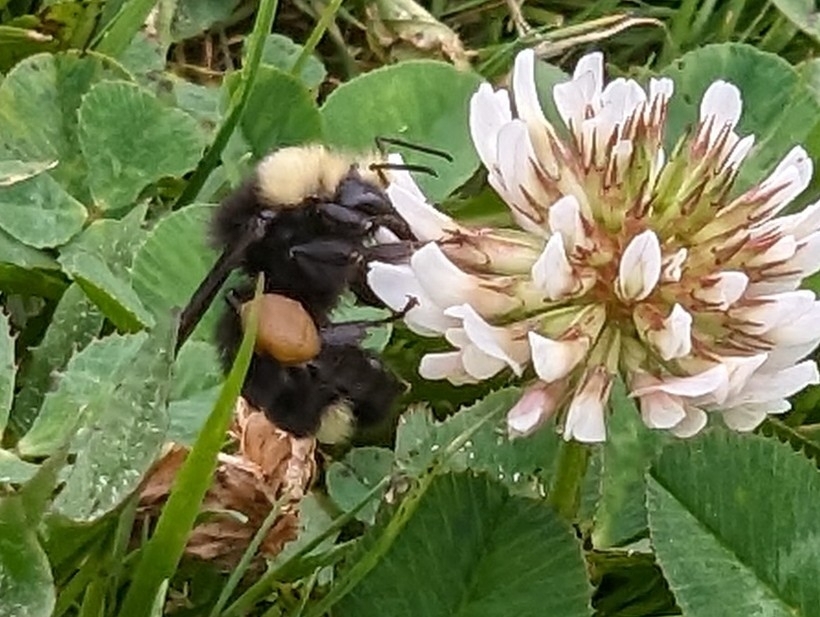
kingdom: Animalia
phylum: Arthropoda
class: Insecta
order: Hymenoptera
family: Apidae
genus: Bombus
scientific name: Bombus vosnesenskii
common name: Vosnesensky bumble bee
